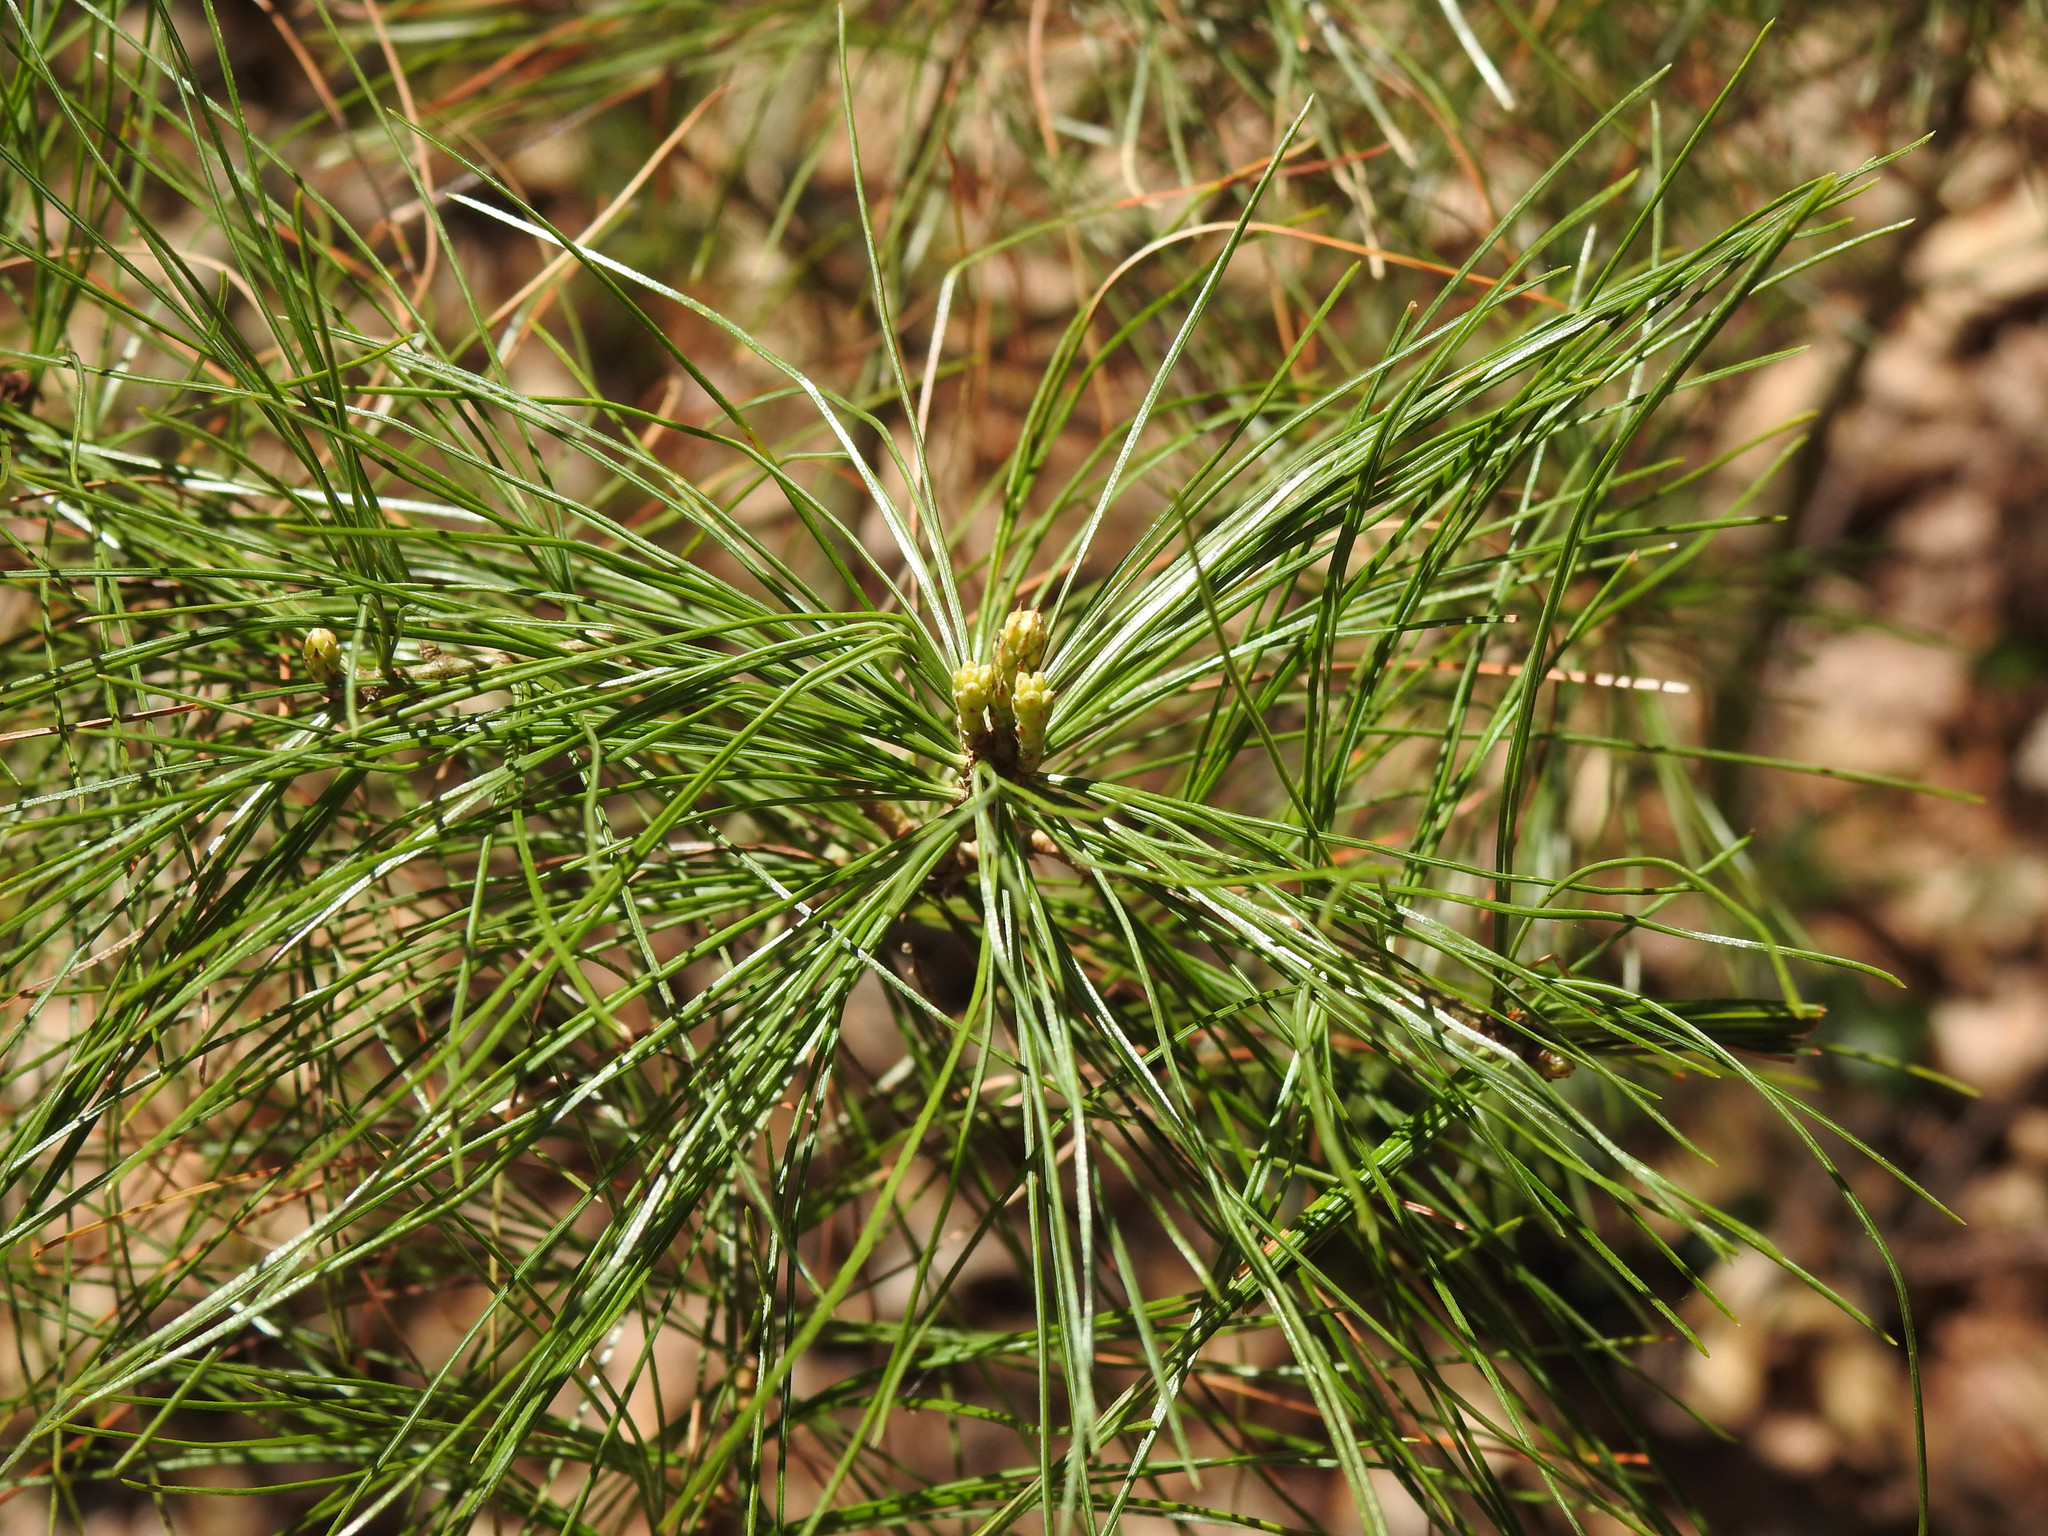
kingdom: Plantae
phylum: Tracheophyta
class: Pinopsida
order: Pinales
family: Pinaceae
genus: Pinus
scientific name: Pinus strobus
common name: Weymouth pine
